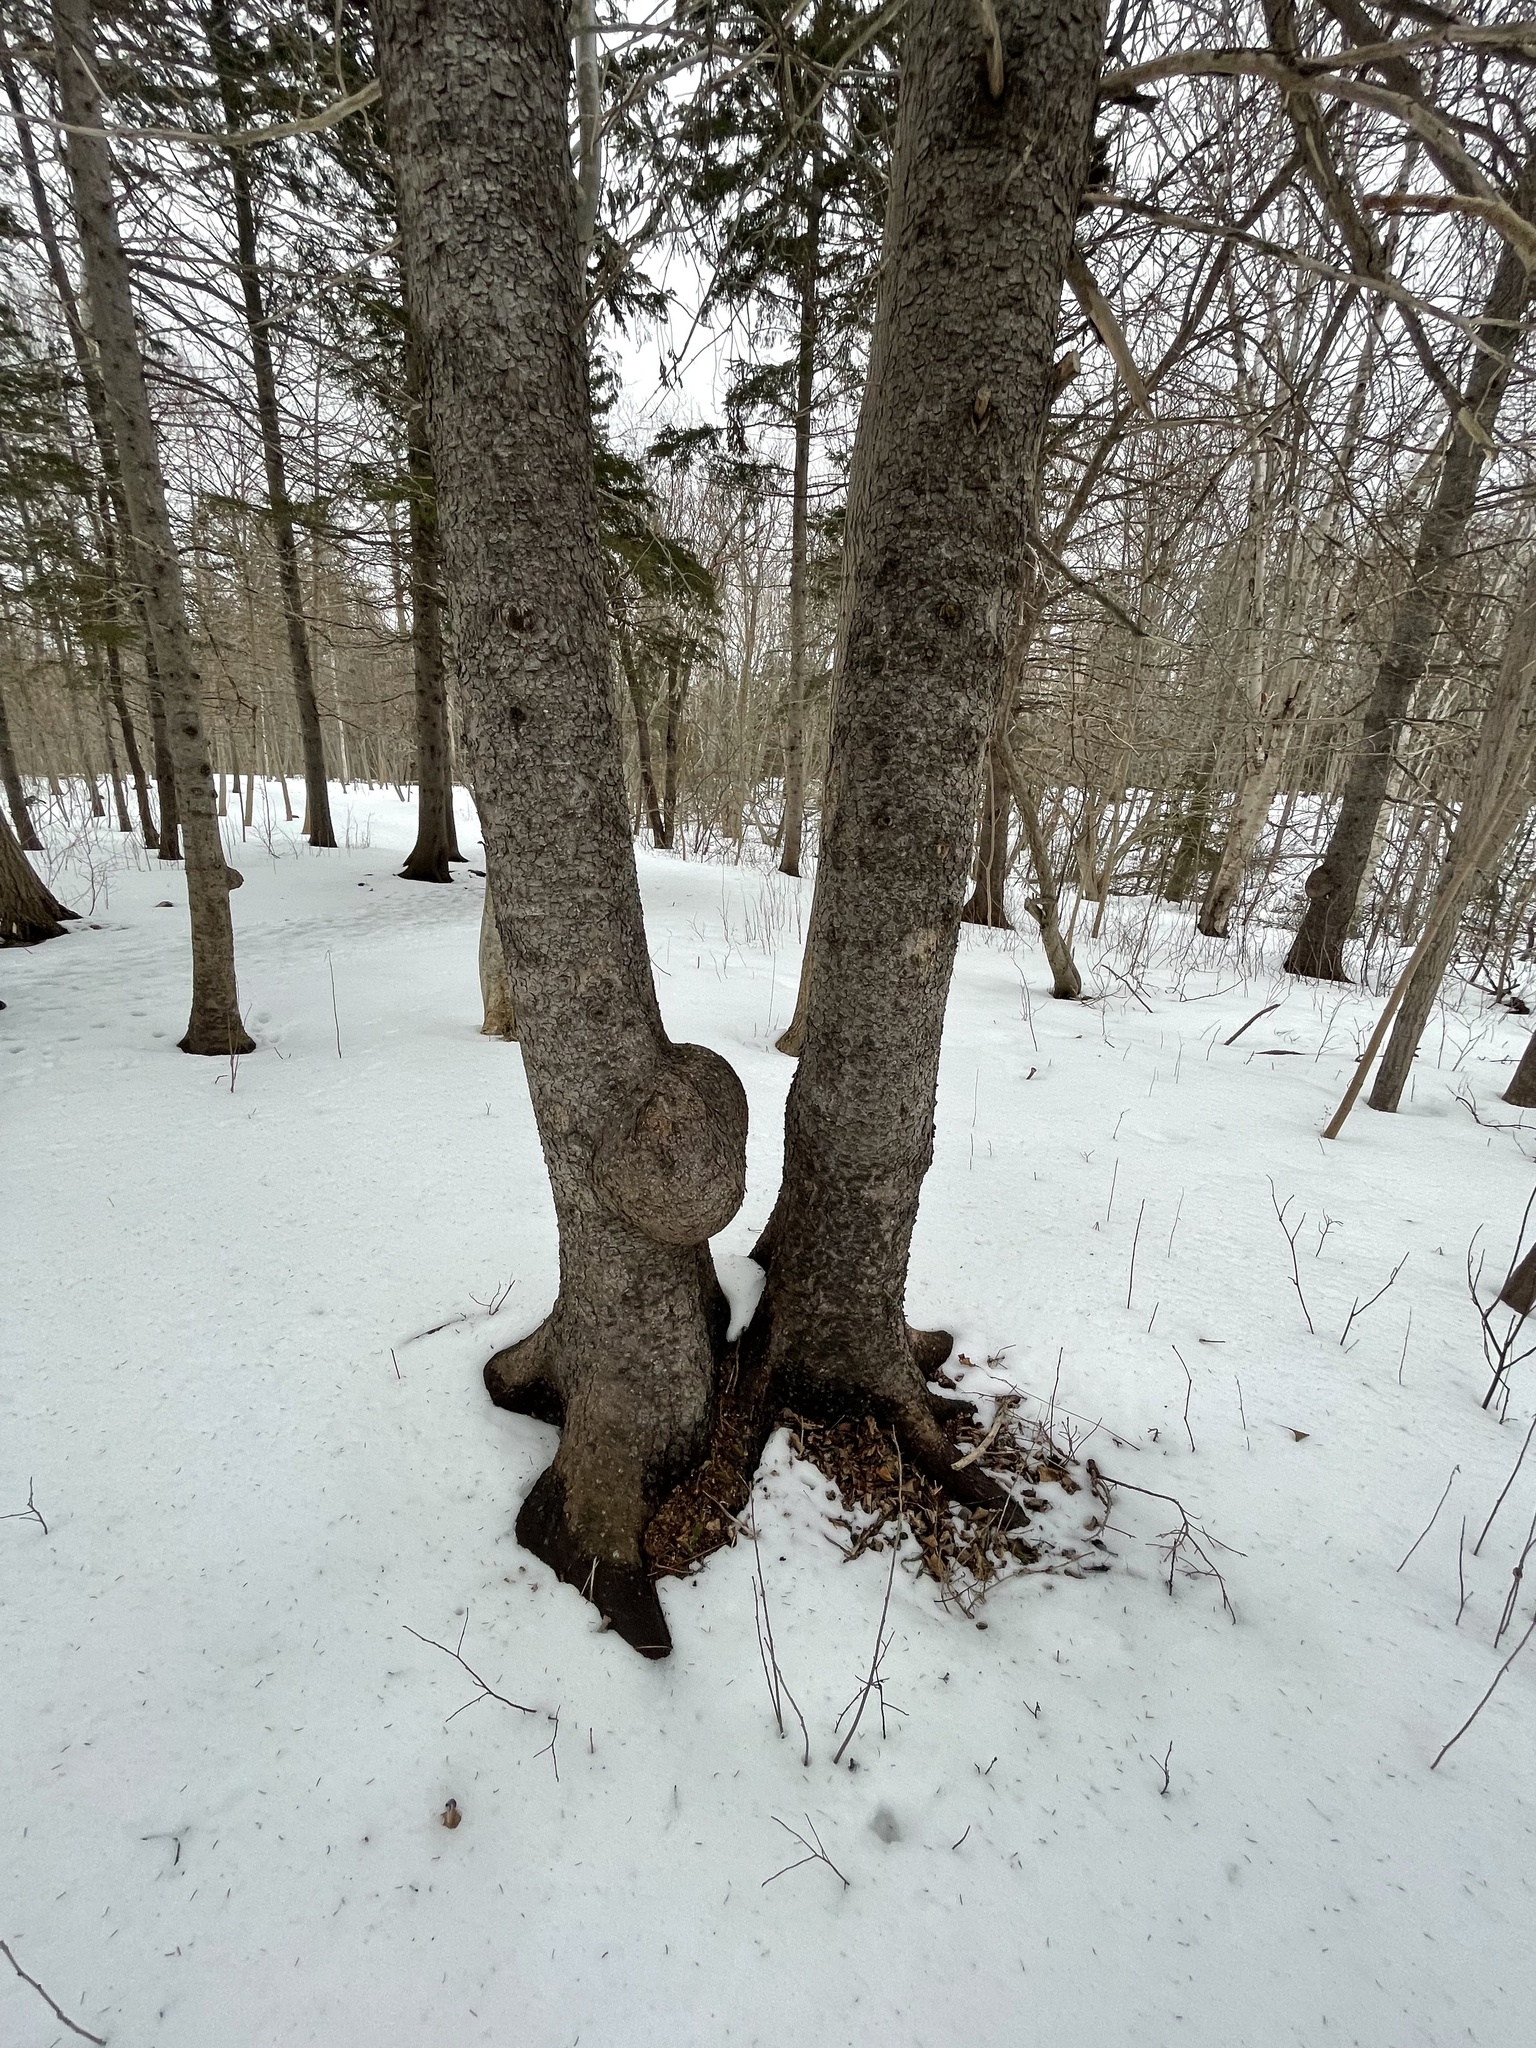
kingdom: Bacteria
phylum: Proteobacteria
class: Alphaproteobacteria
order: Rhizobiales
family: Rhizobiaceae
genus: Rhizobium
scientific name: Rhizobium Agrobacterium radiobacter
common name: Bacterial crown gall
